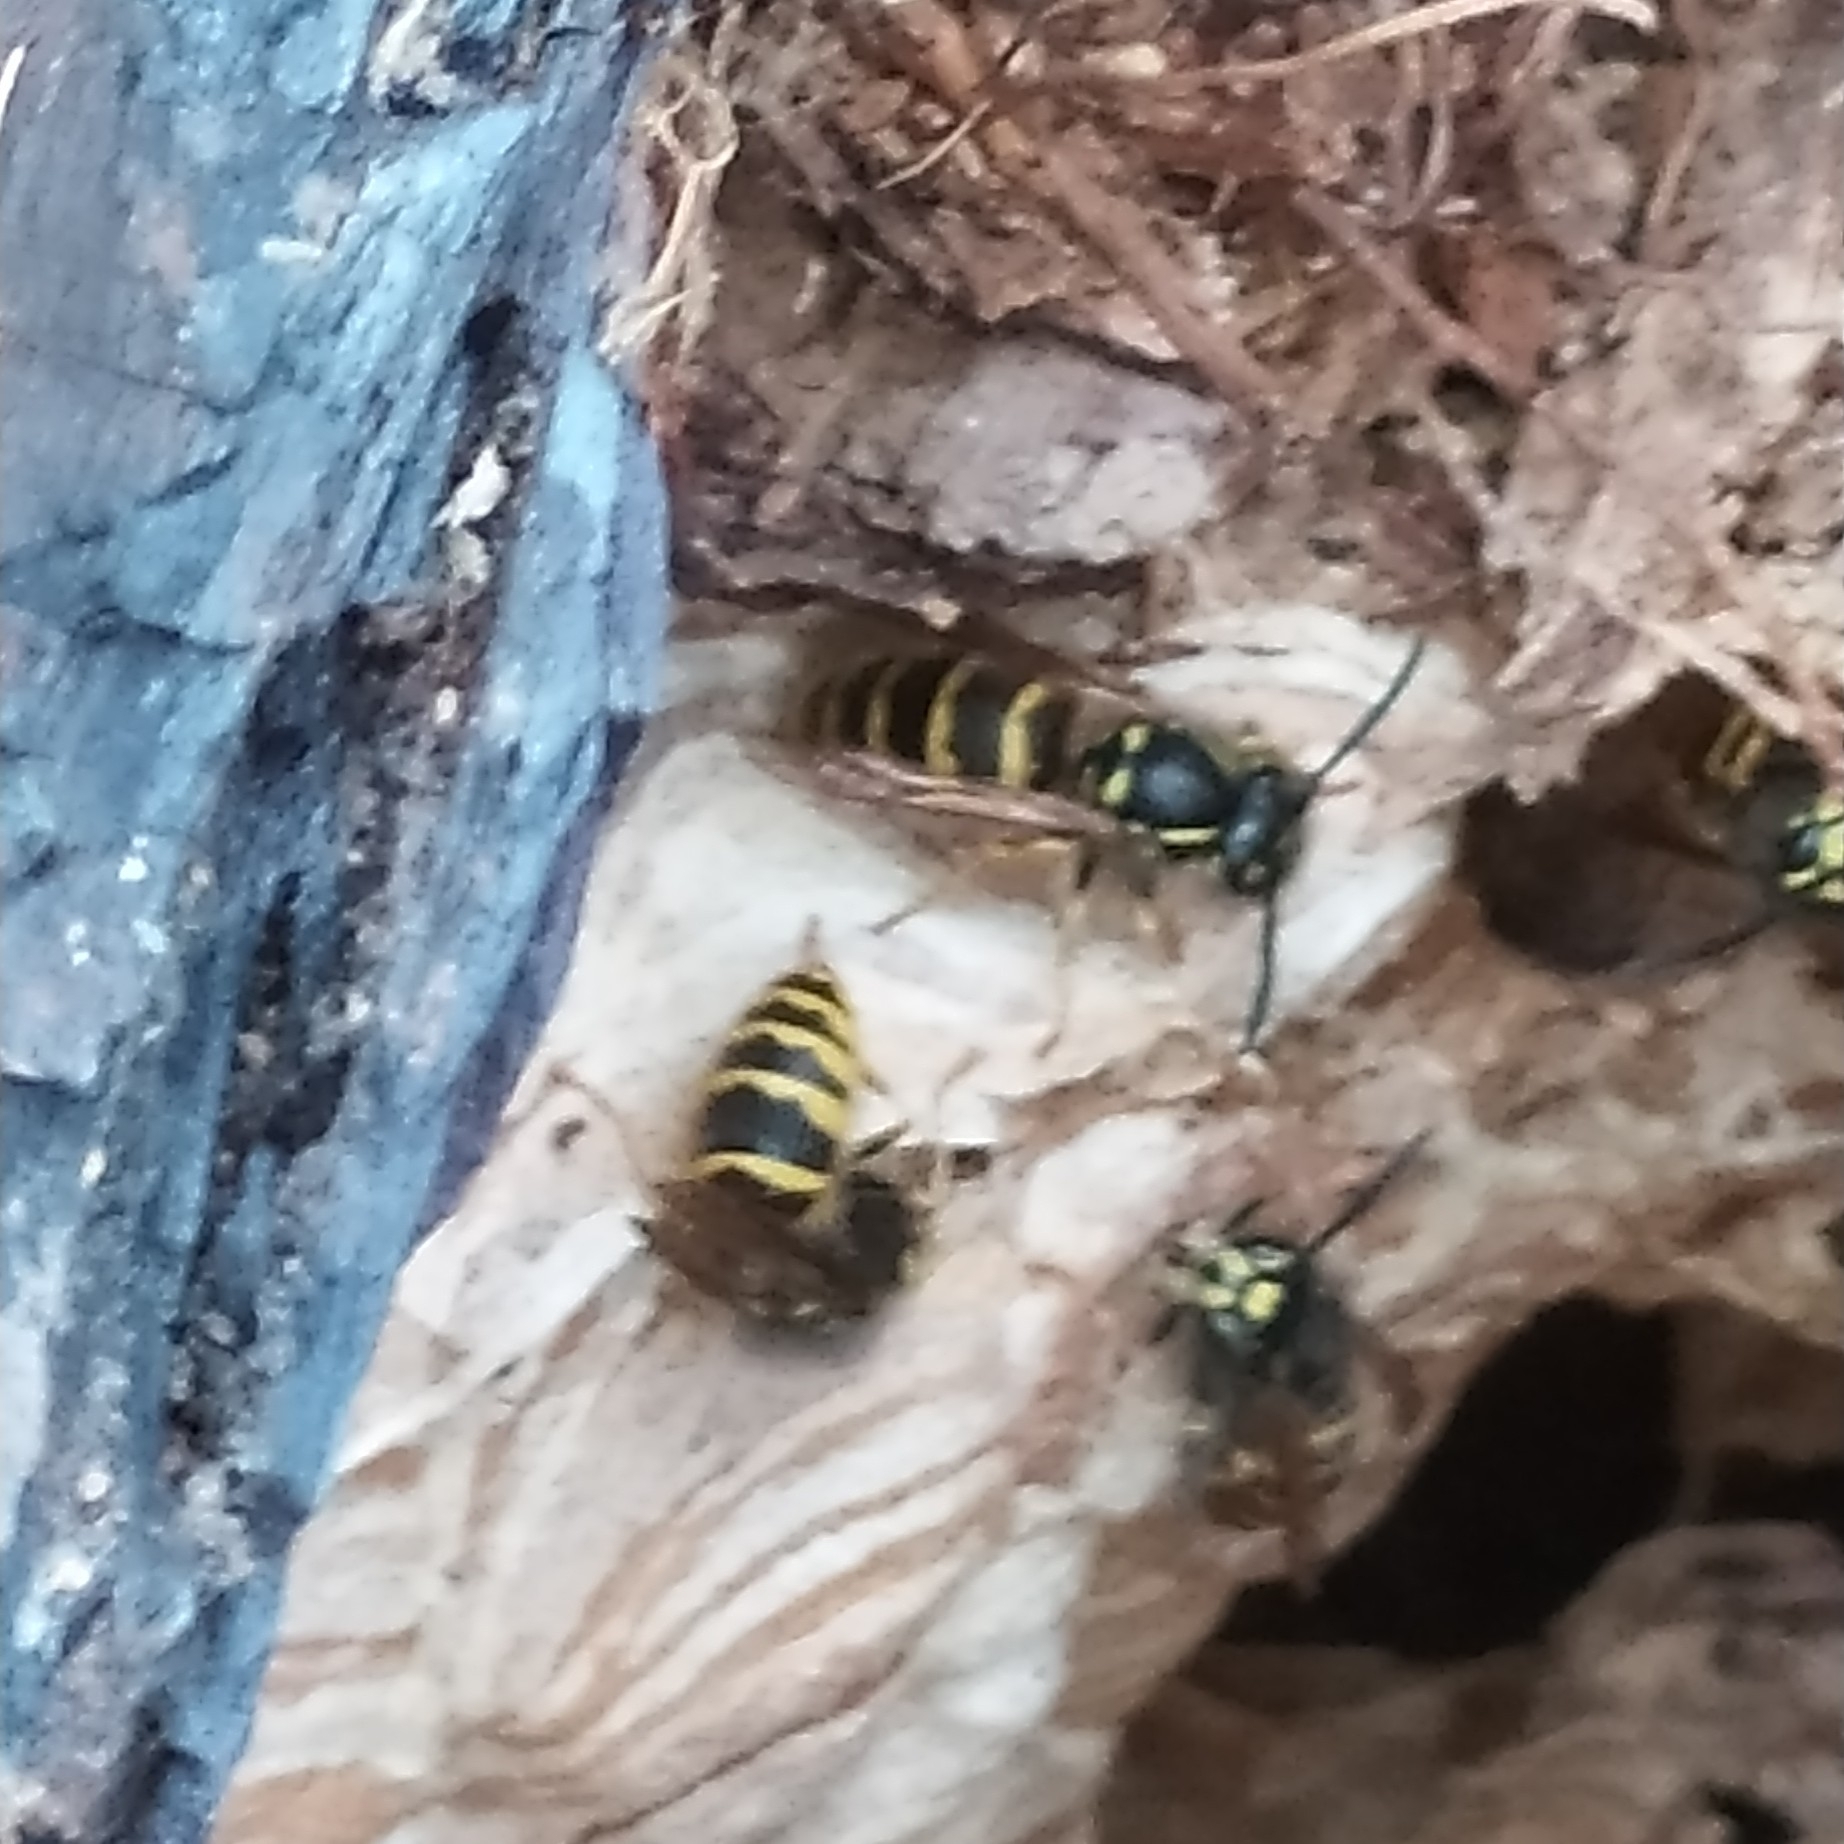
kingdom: Animalia
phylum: Arthropoda
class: Insecta
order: Hymenoptera
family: Vespidae
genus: Vespula
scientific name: Vespula vulgaris
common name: Common wasp
